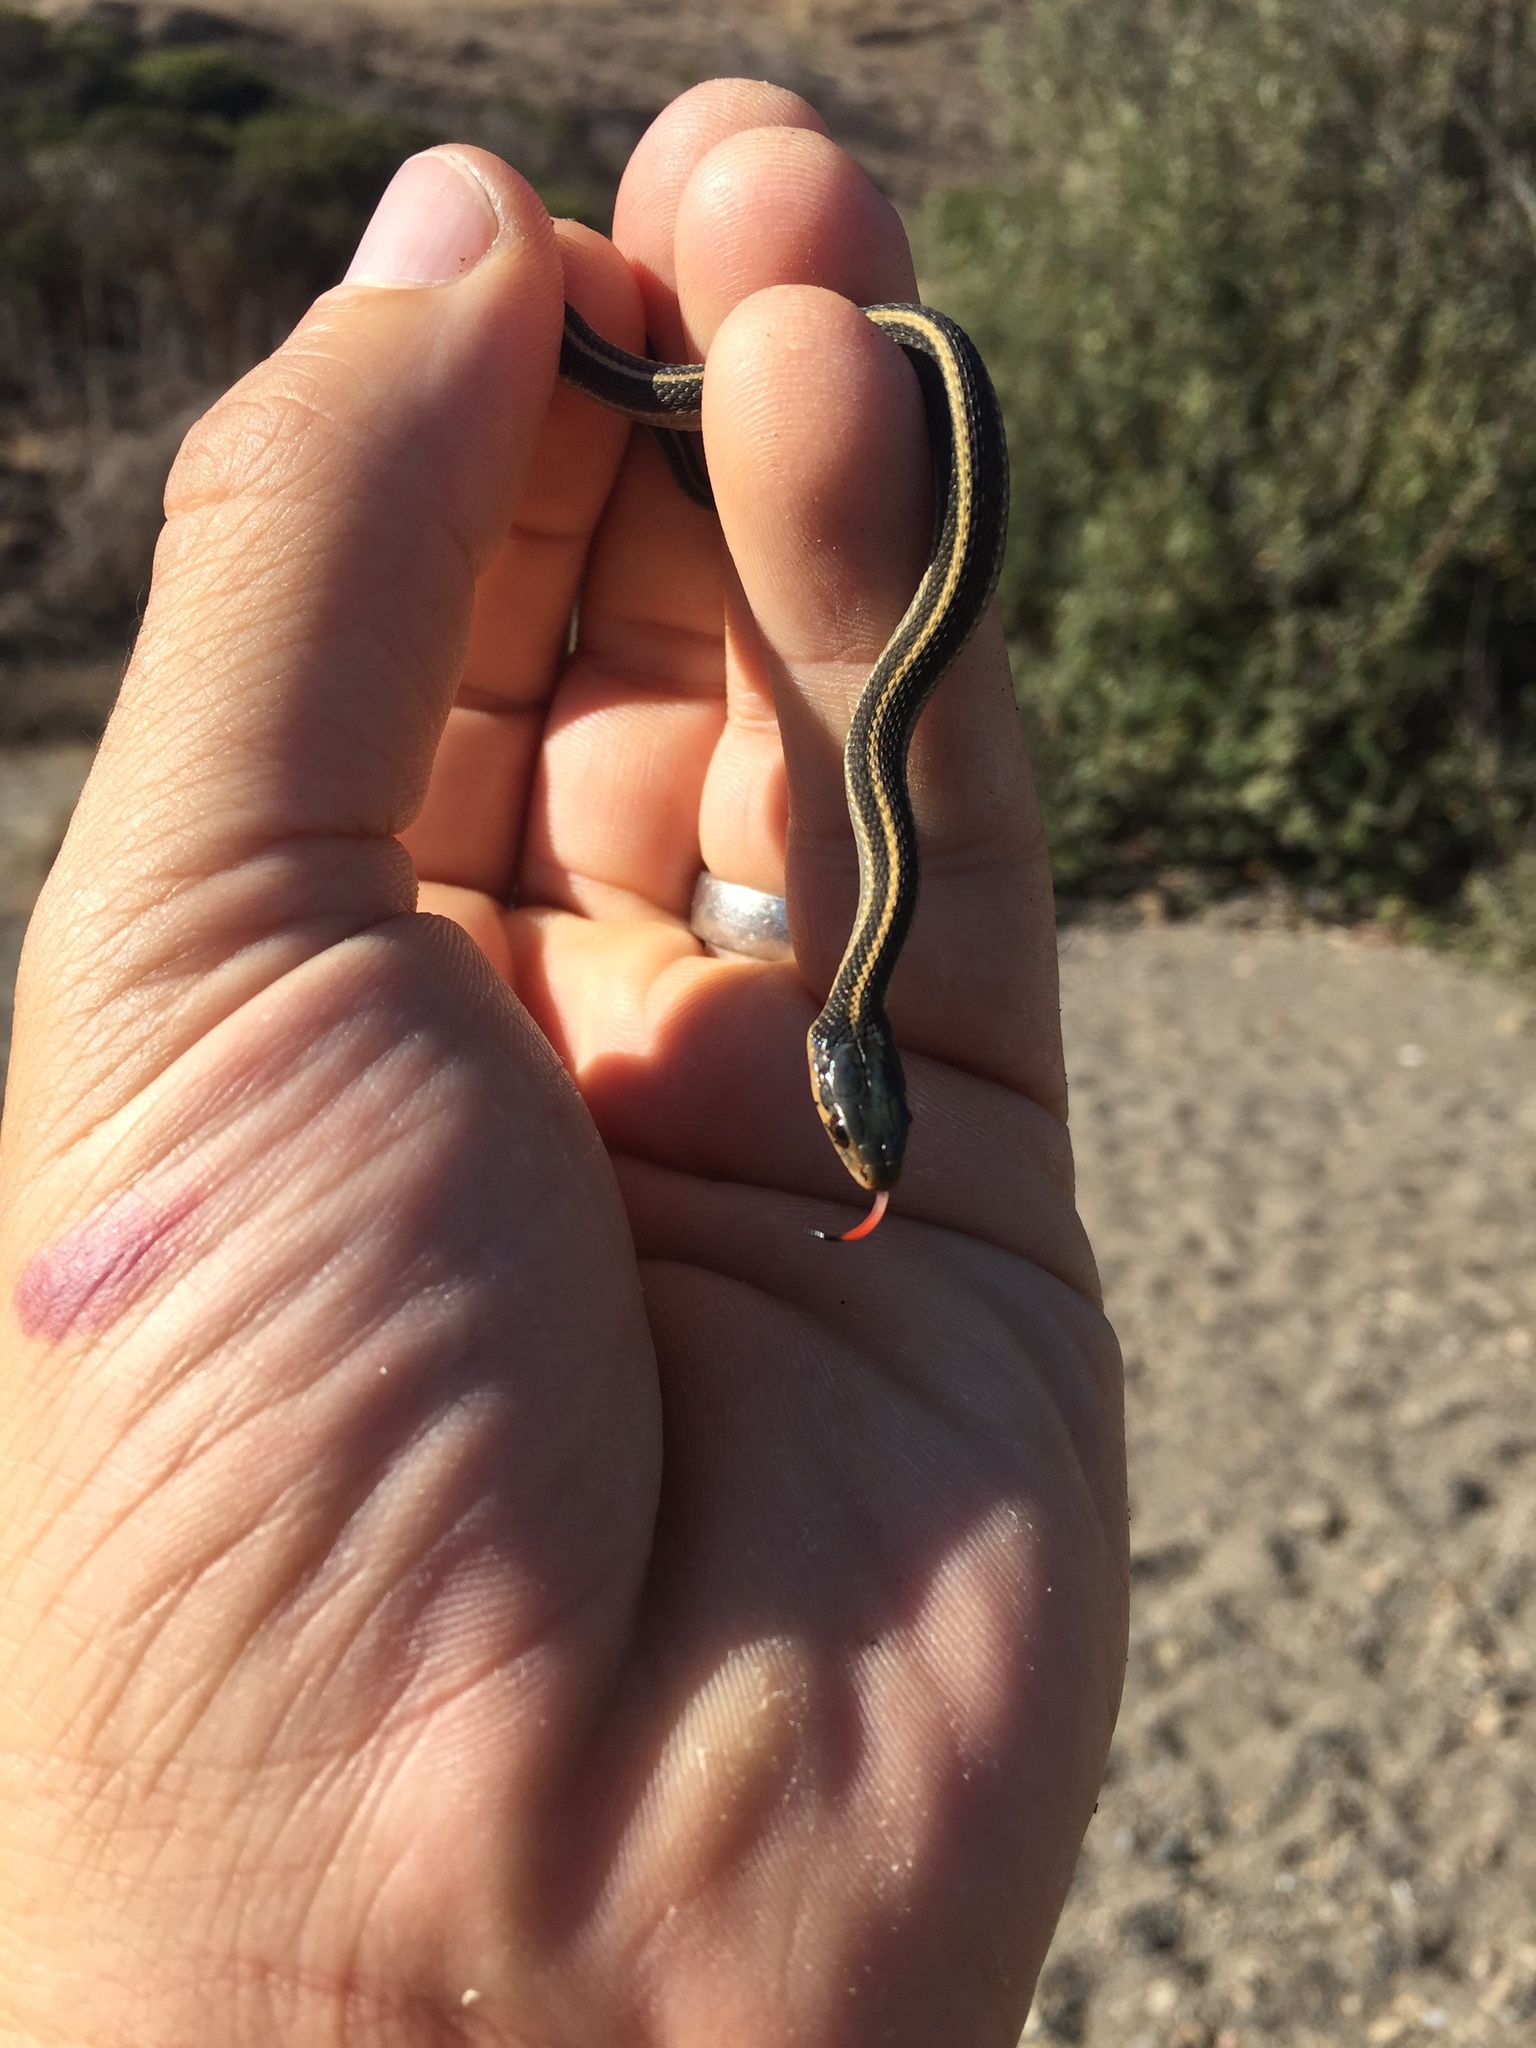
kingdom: Animalia
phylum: Chordata
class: Squamata
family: Colubridae
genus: Thamnophis
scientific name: Thamnophis atratus
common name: Pacific coast aquatic garter snake
